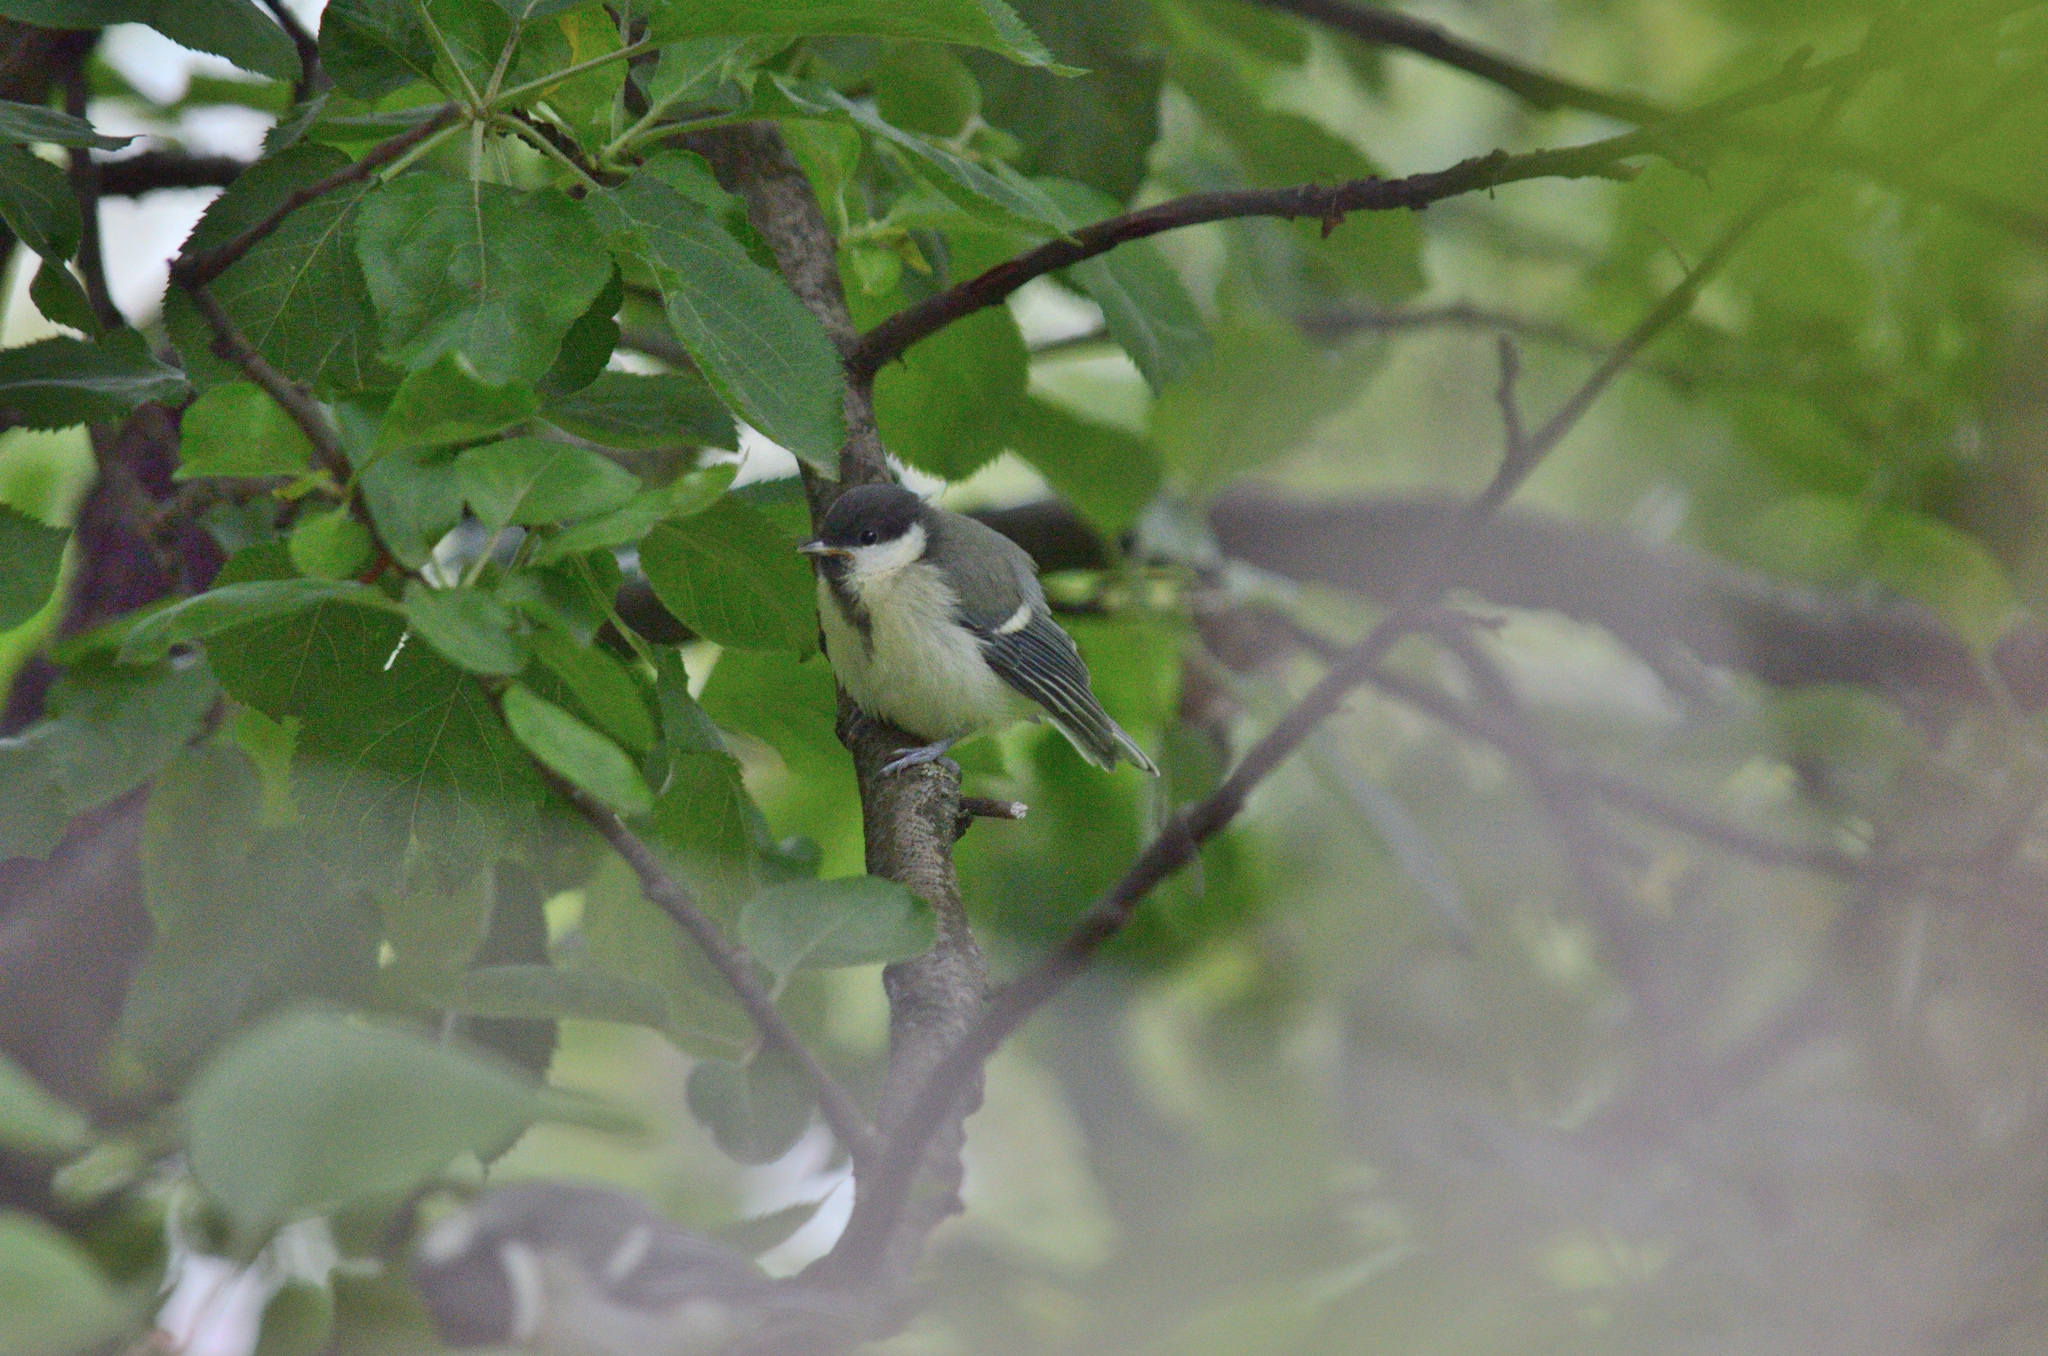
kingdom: Animalia
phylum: Chordata
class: Aves
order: Passeriformes
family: Paridae
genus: Parus
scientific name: Parus major
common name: Great tit
